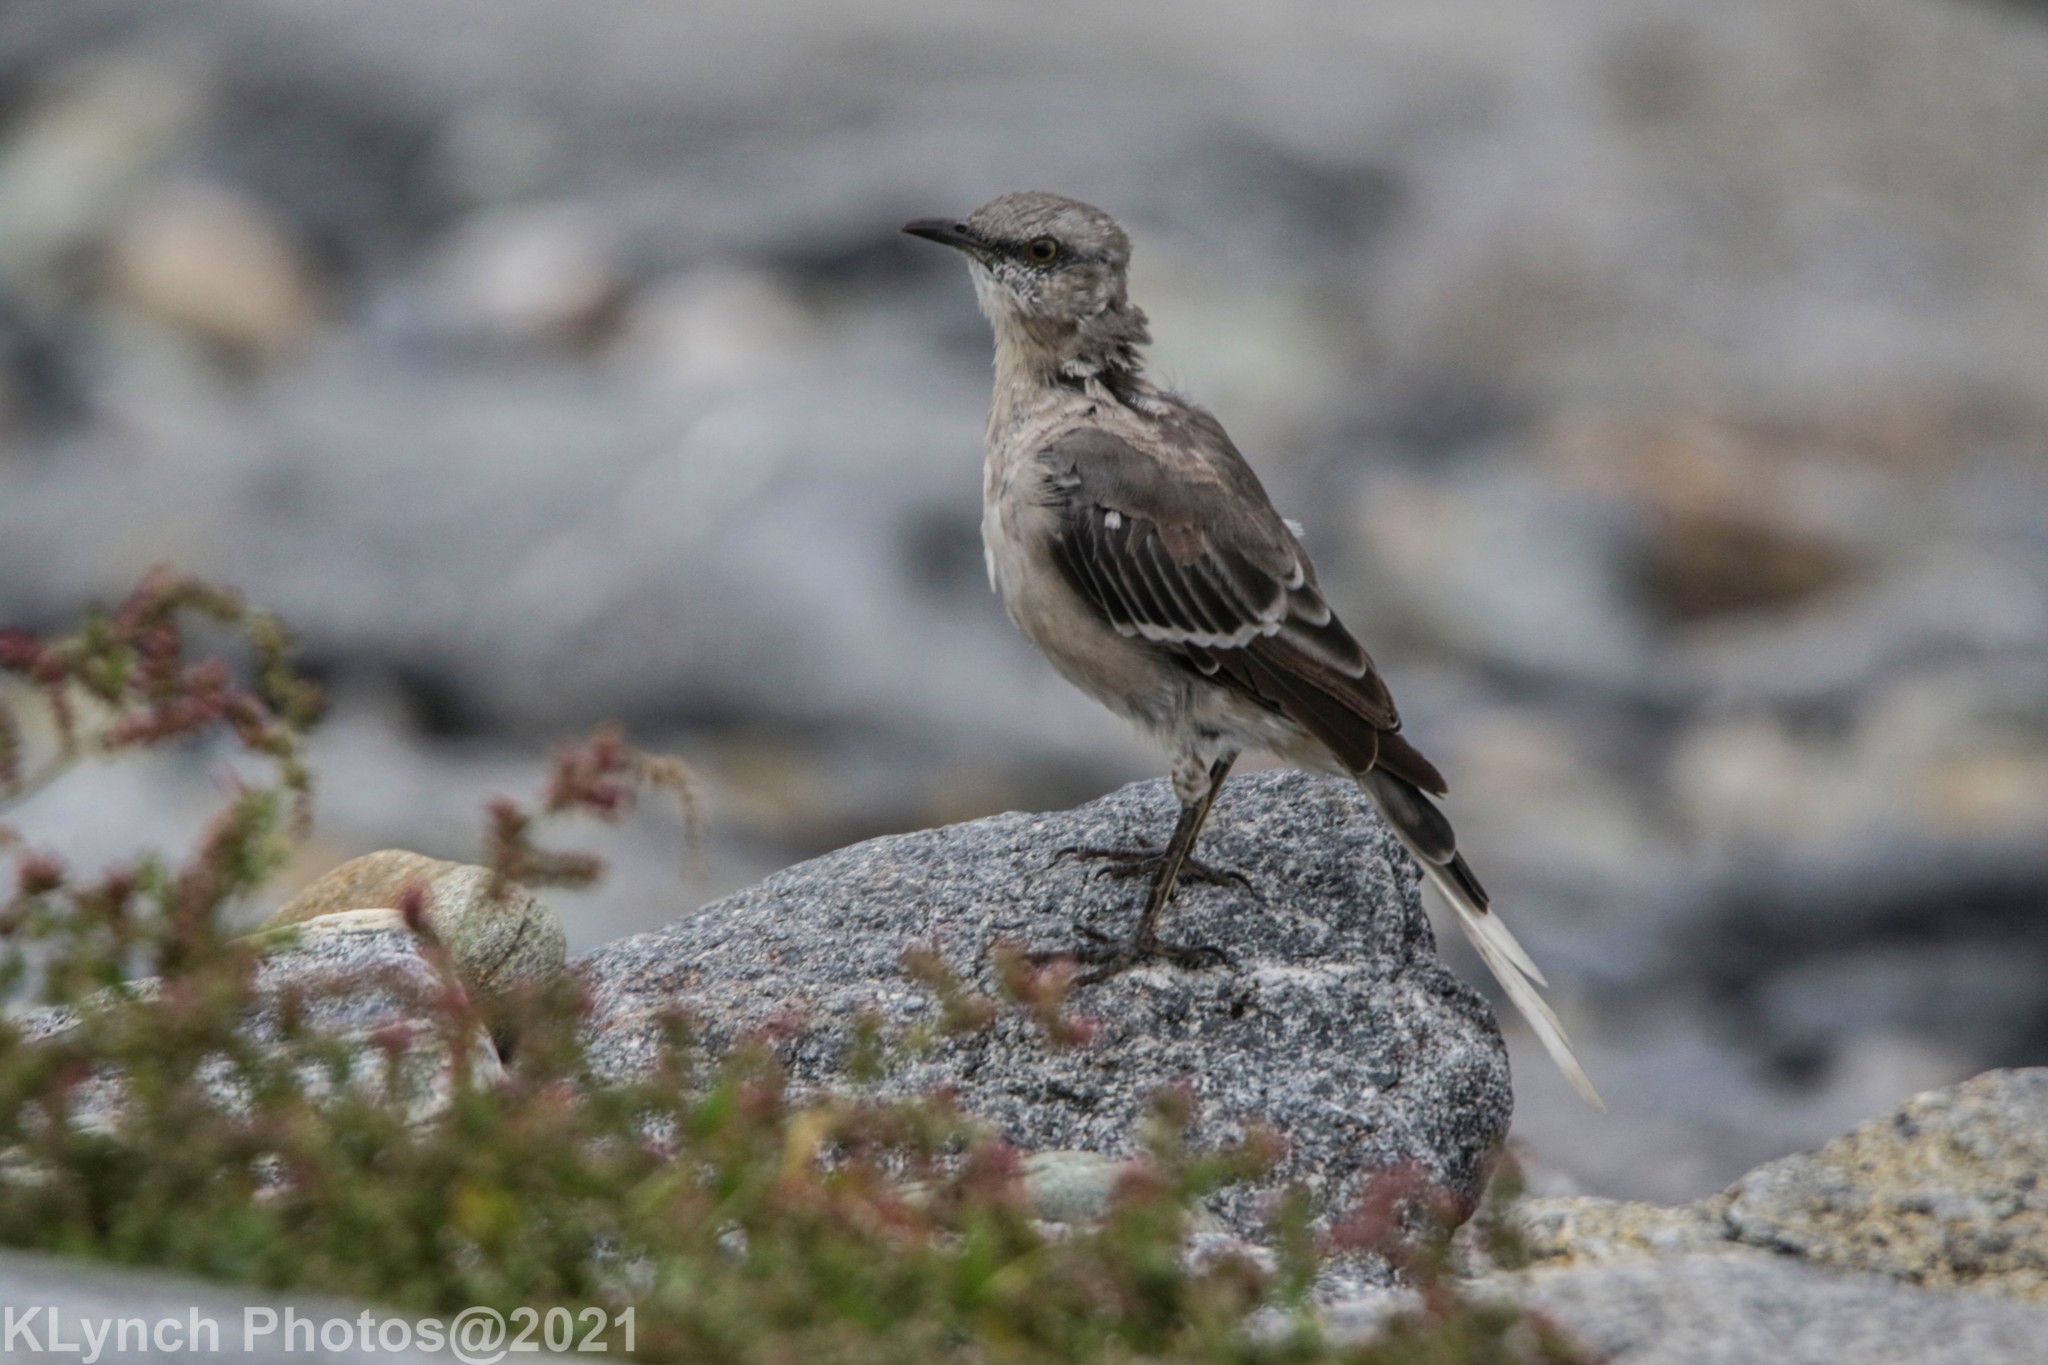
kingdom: Animalia
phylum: Chordata
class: Aves
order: Passeriformes
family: Mimidae
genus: Mimus
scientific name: Mimus polyglottos
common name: Northern mockingbird
